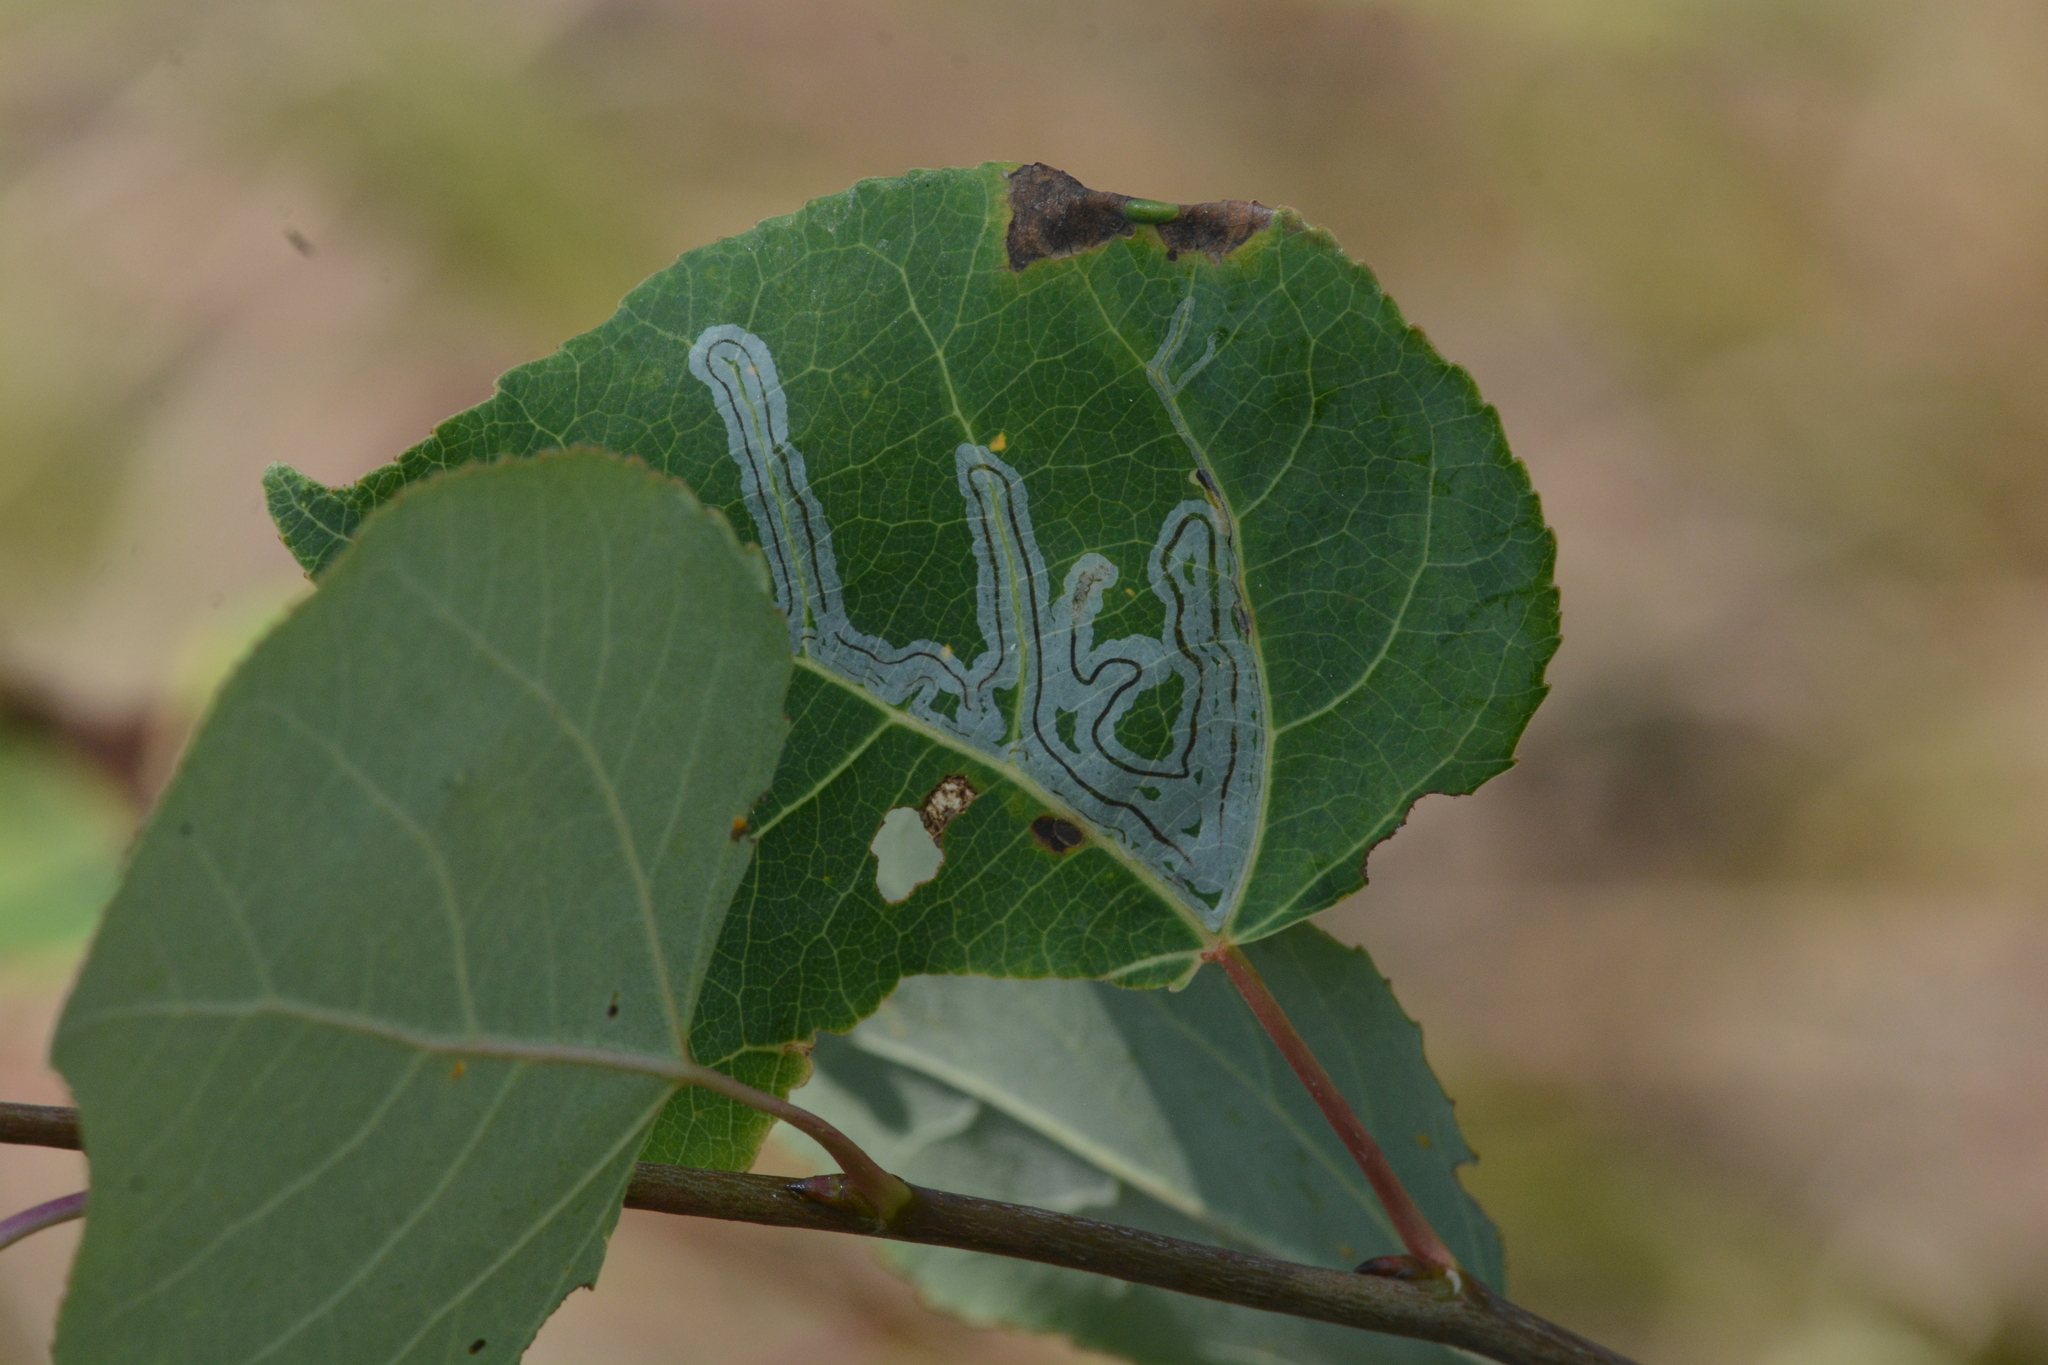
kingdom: Animalia
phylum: Arthropoda
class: Insecta
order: Lepidoptera
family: Gracillariidae
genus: Phyllocnistis
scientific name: Phyllocnistis populiella
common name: Aspen serpentine leafminer moth
